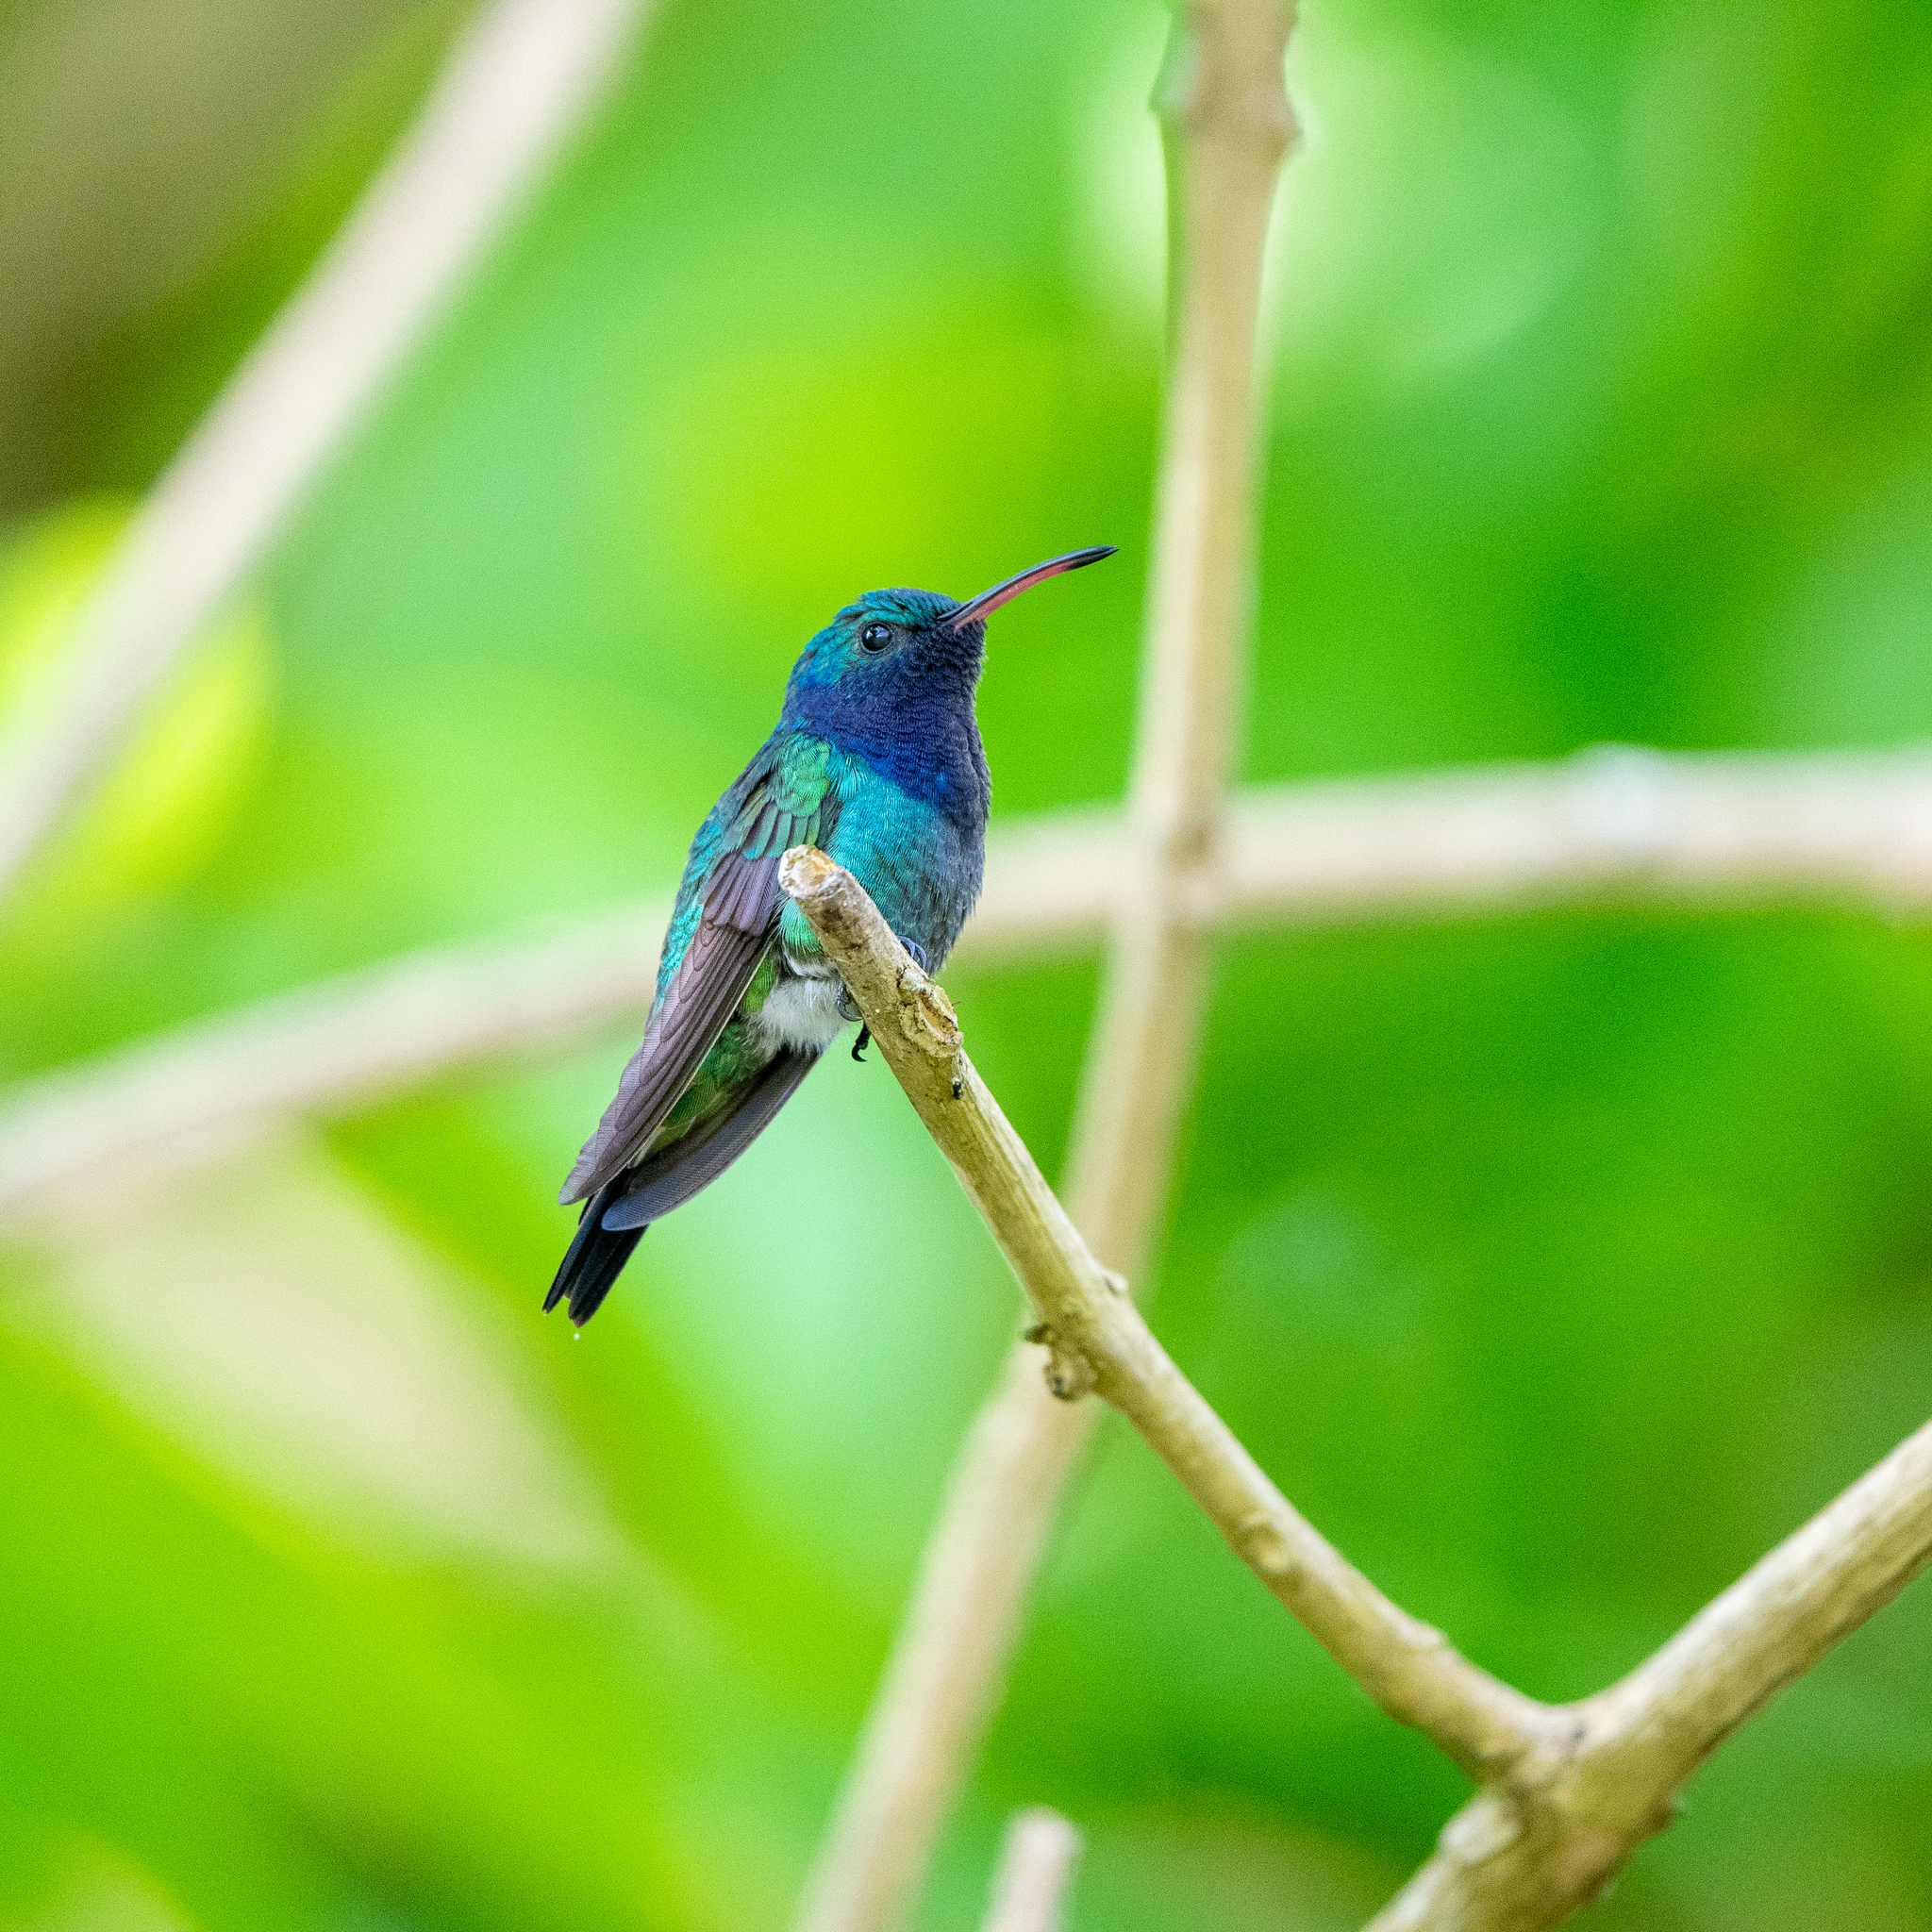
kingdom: Animalia
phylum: Chordata
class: Aves
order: Apodiformes
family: Trochilidae
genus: Chrysuronia
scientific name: Chrysuronia coeruleogularis
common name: Sapphire-throated hummingbird
